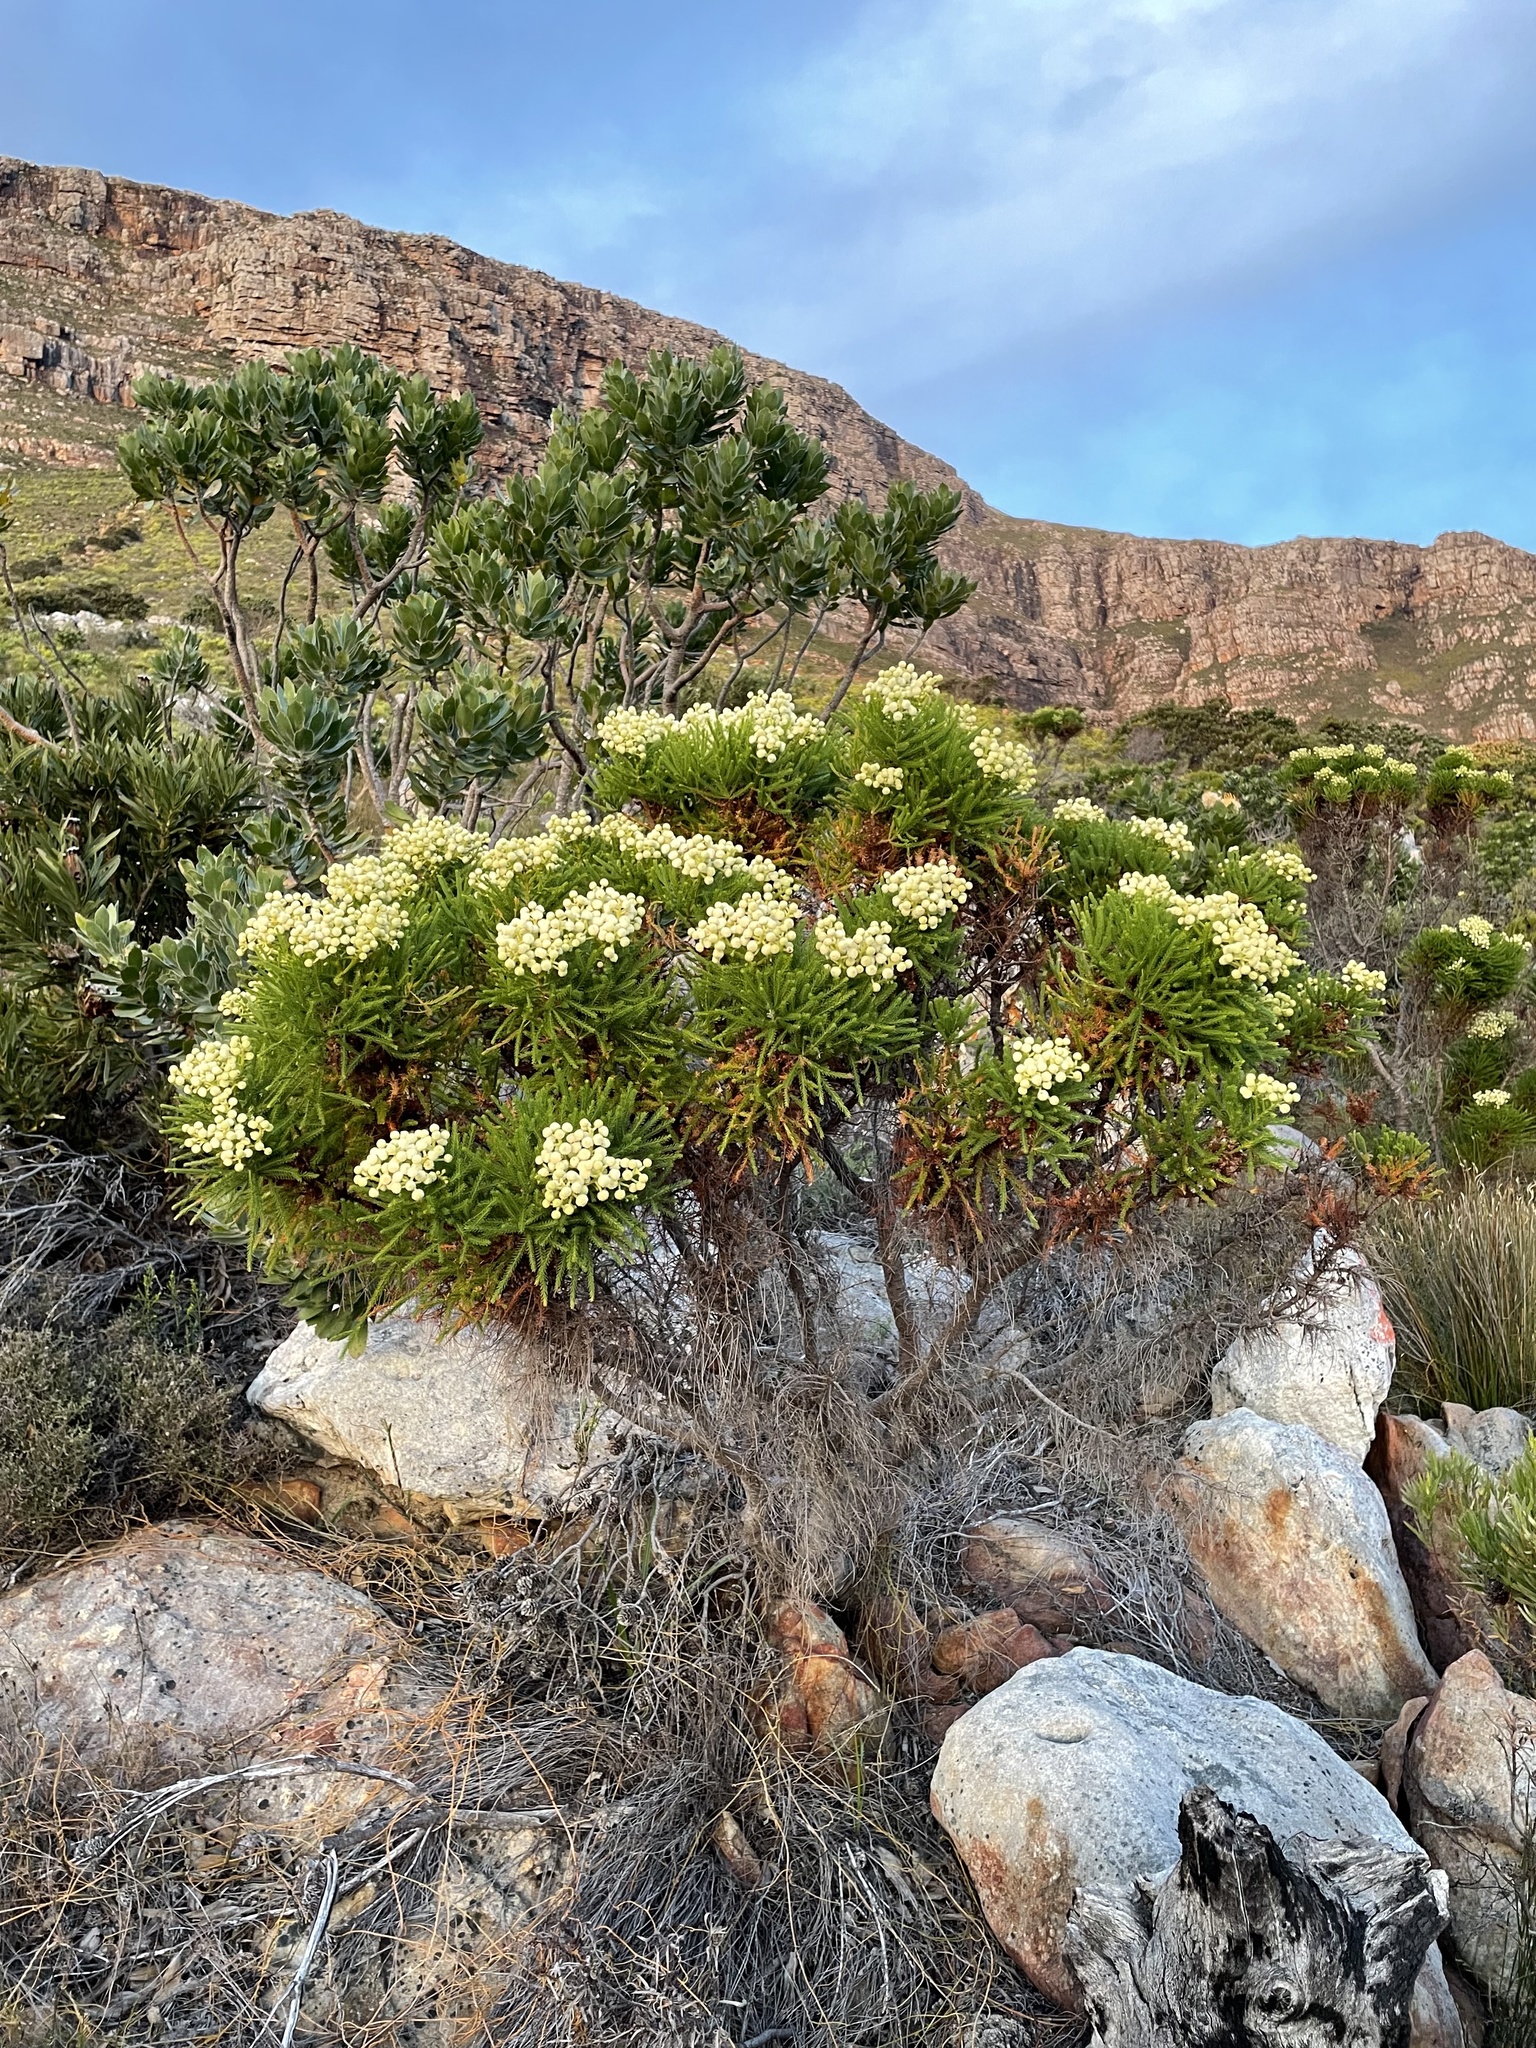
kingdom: Plantae
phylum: Tracheophyta
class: Magnoliopsida
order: Bruniales
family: Bruniaceae
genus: Berzelia
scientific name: Berzelia lanuginosa
